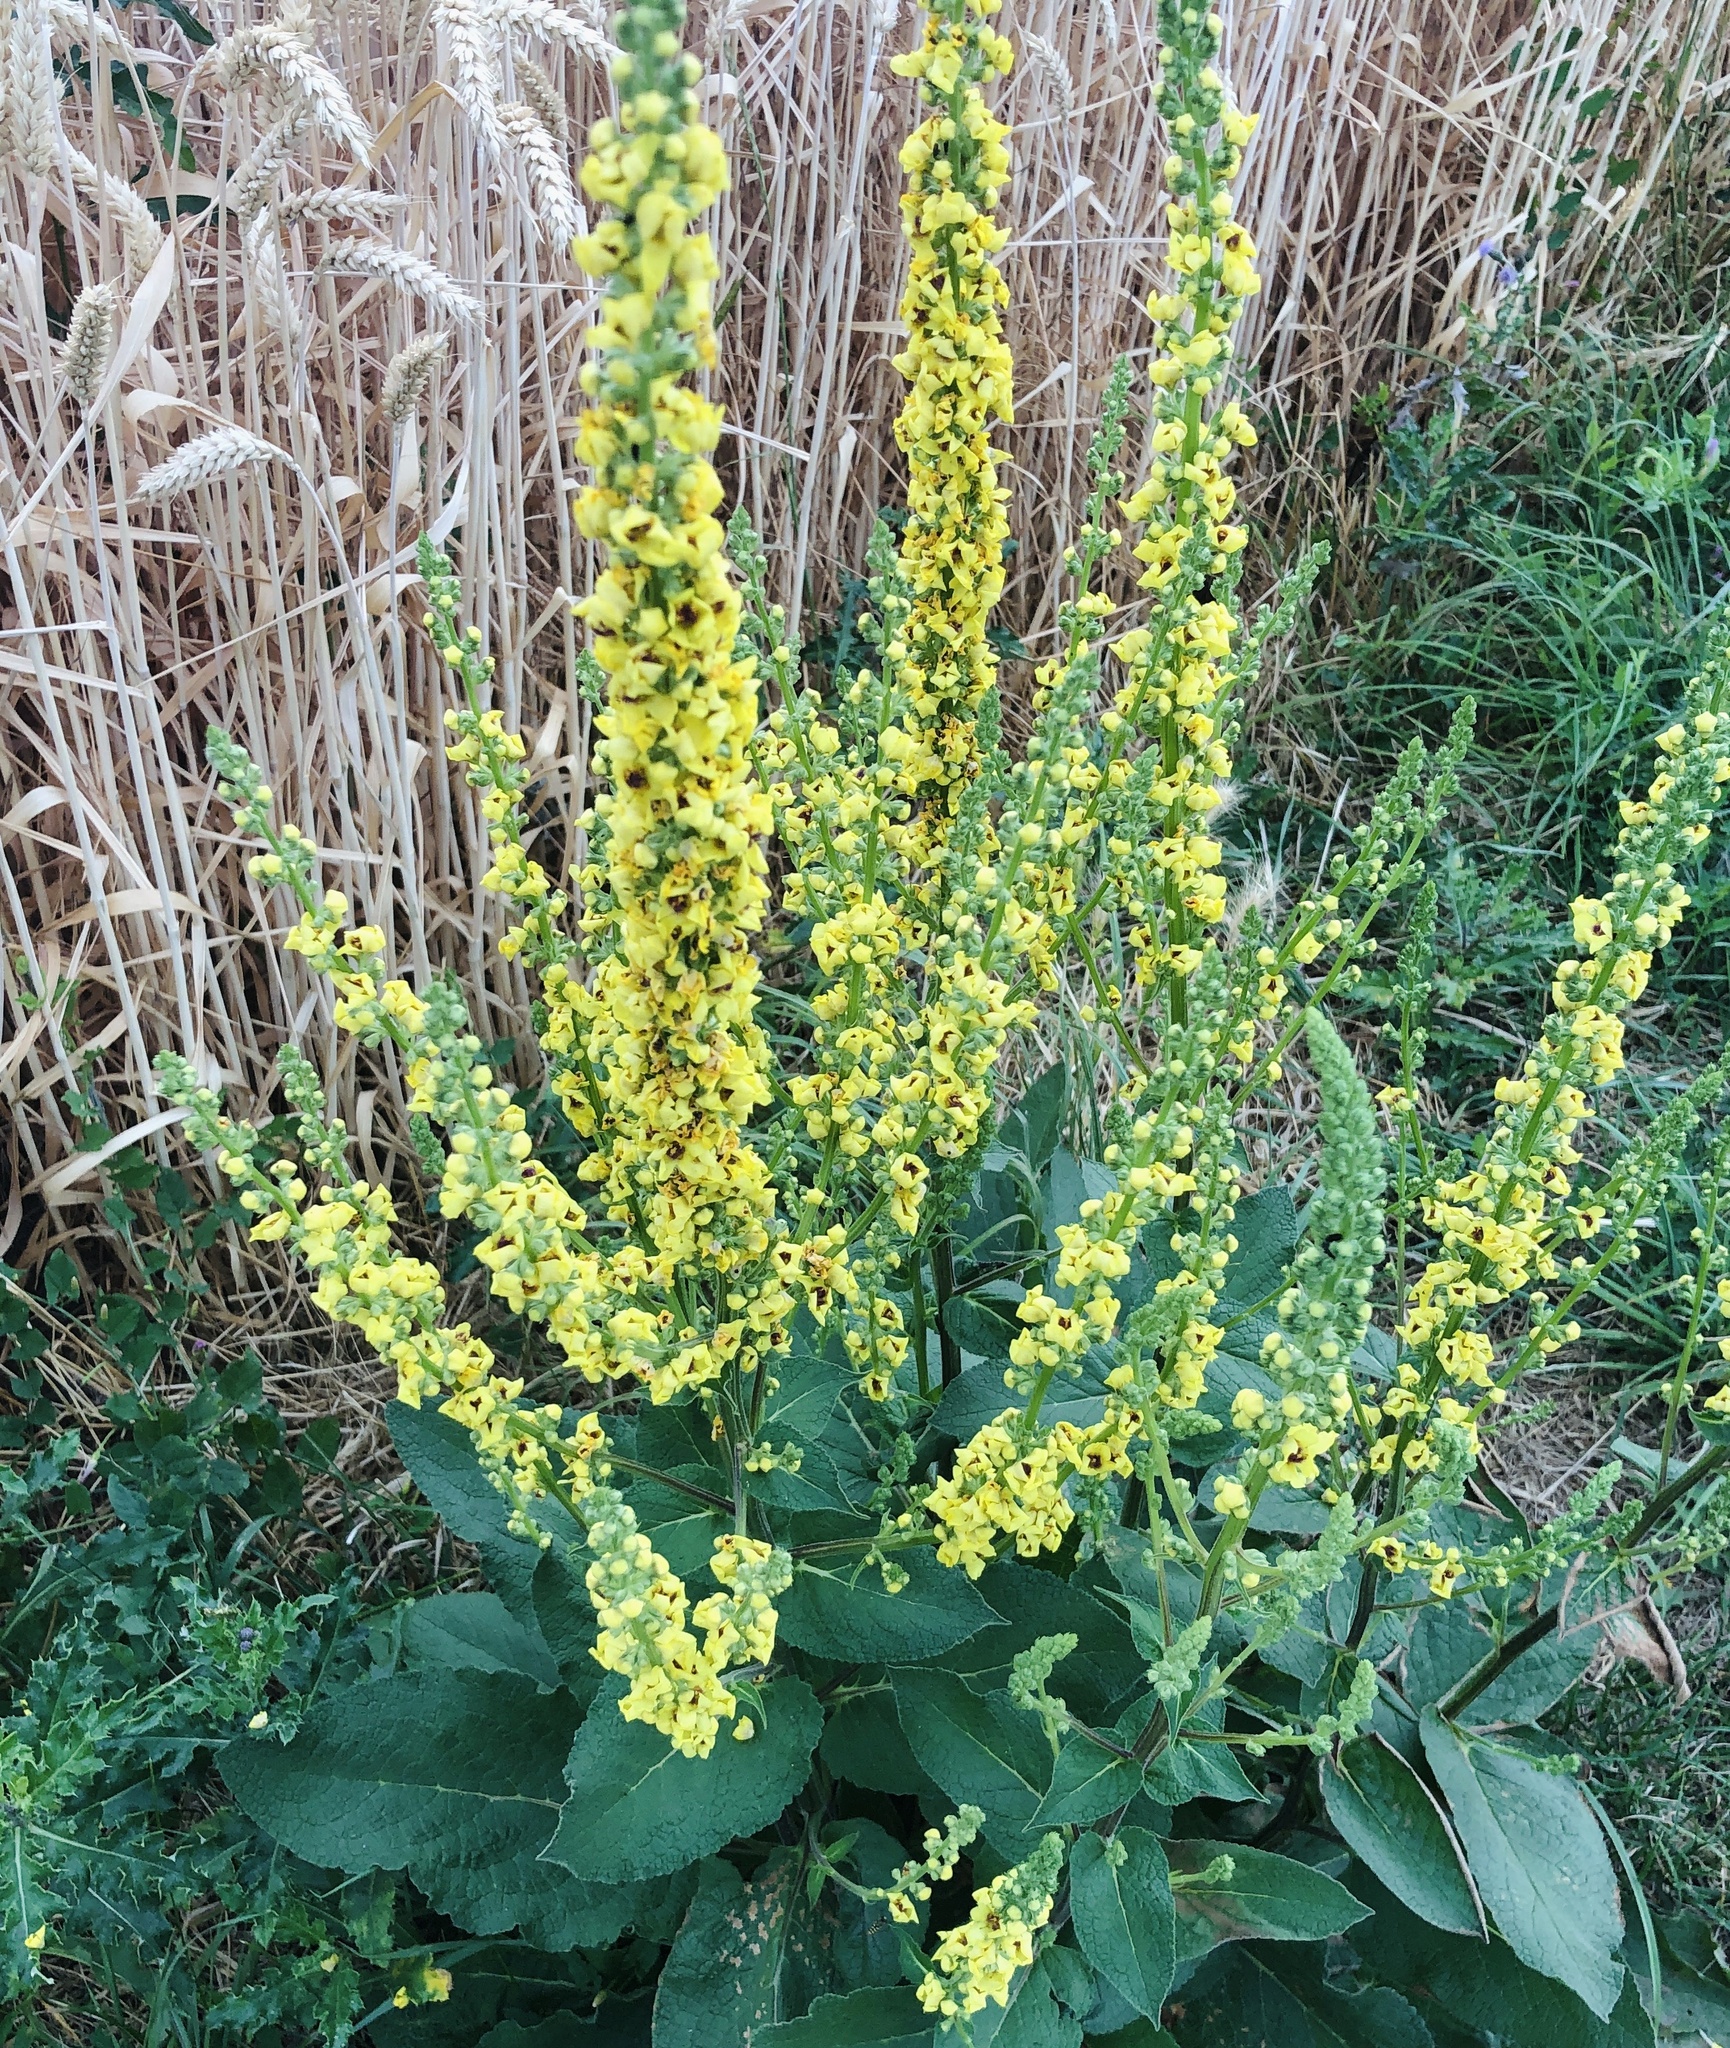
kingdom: Plantae
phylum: Tracheophyta
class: Magnoliopsida
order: Lamiales
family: Scrophulariaceae
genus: Verbascum
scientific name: Verbascum nigrum
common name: Dark mullein
